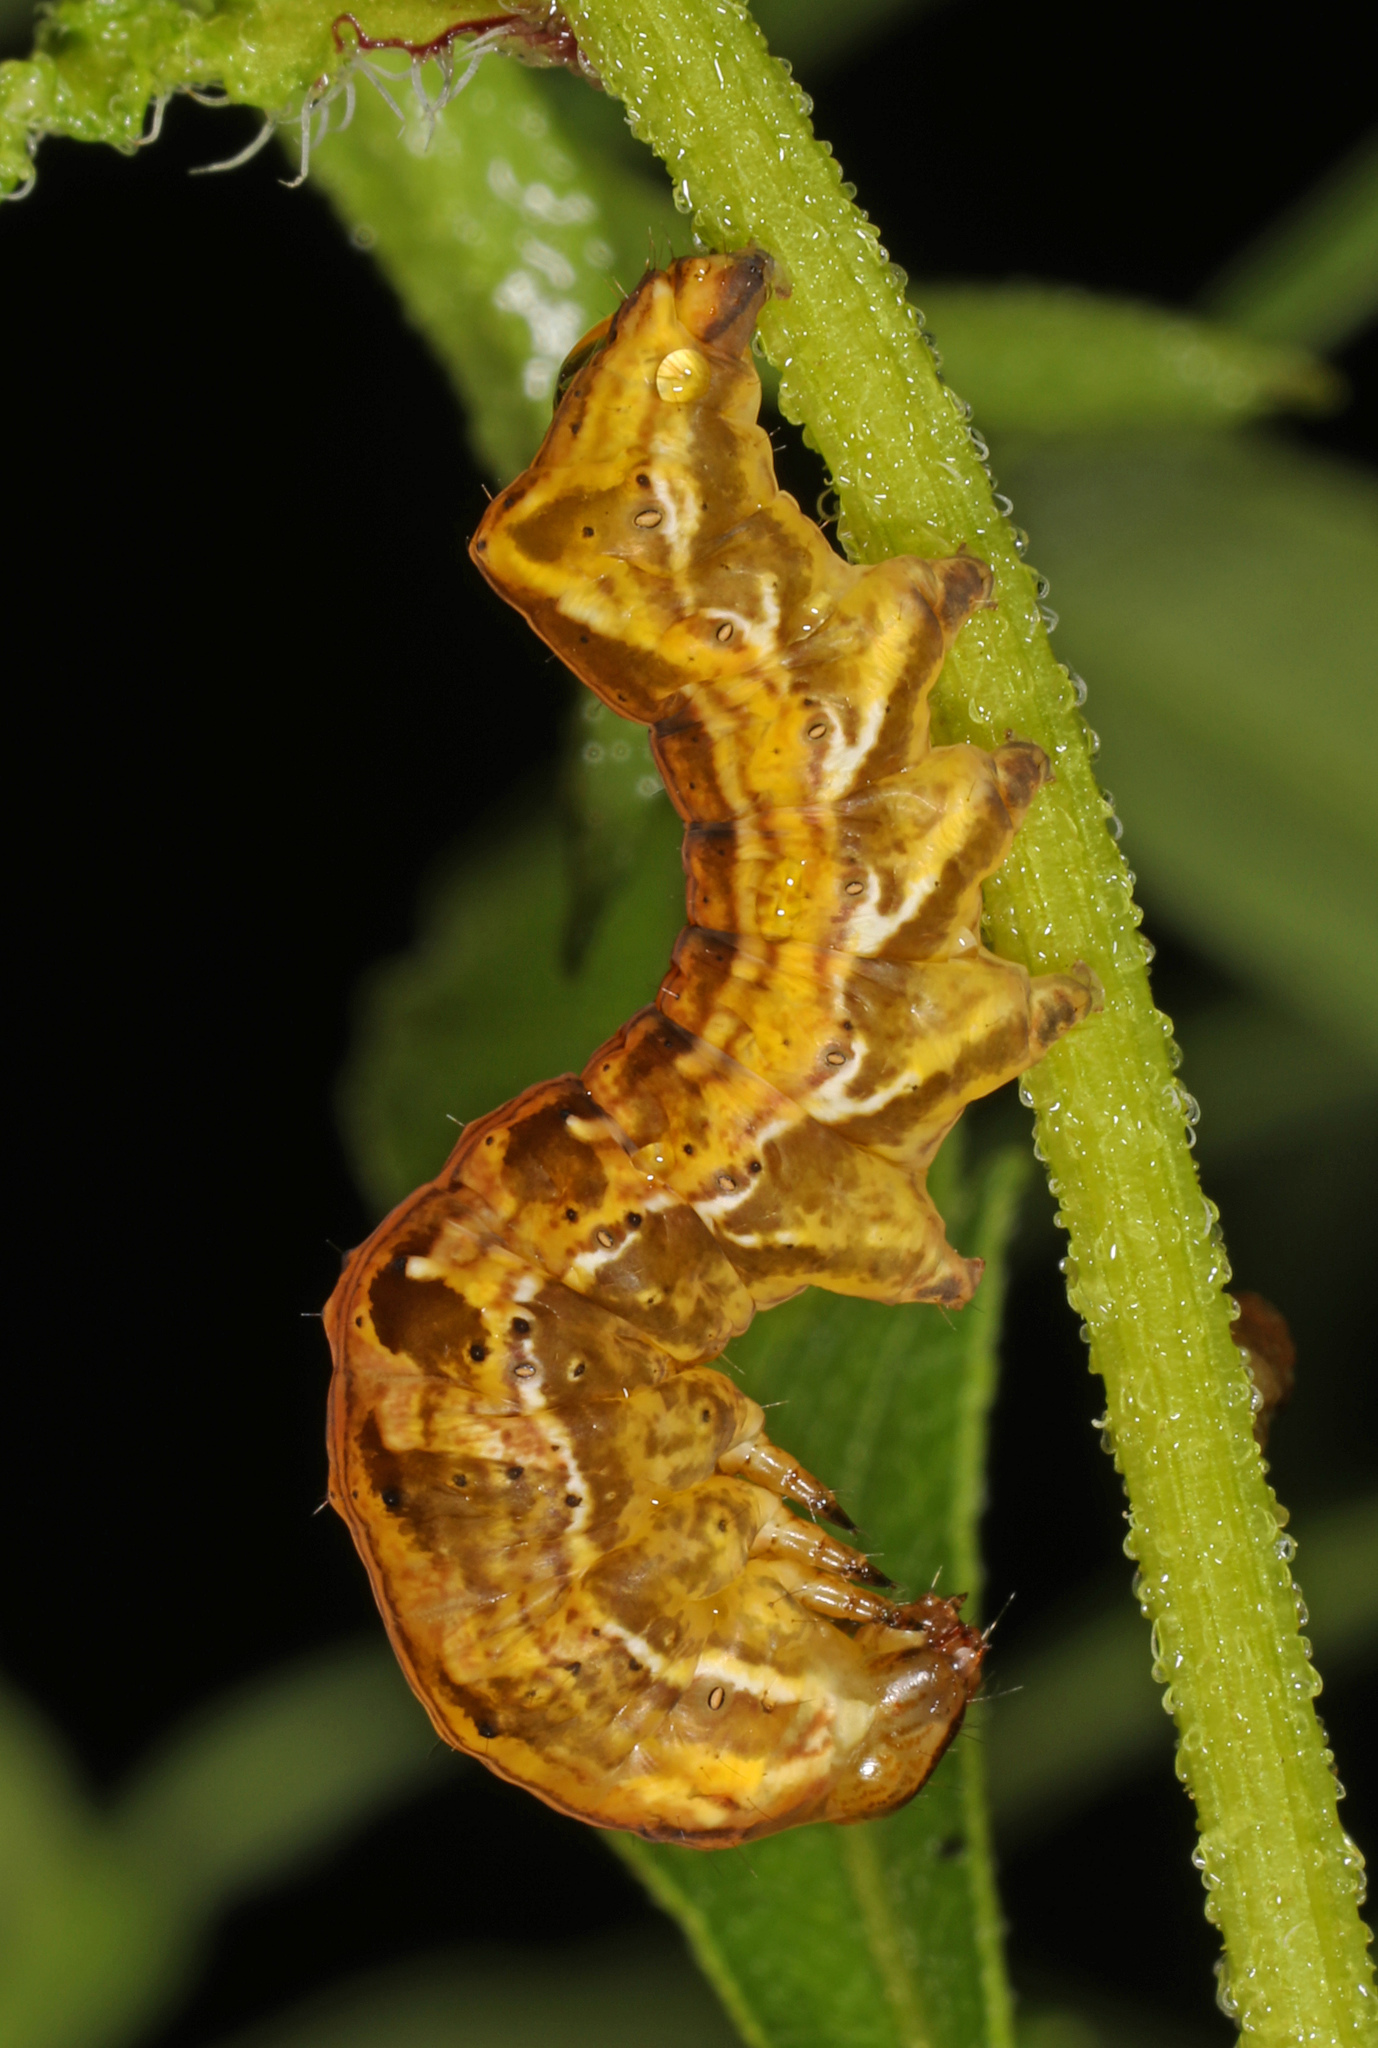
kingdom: Animalia
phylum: Arthropoda
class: Insecta
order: Lepidoptera
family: Noctuidae
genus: Cirrhophanus
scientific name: Cirrhophanus triangulifer
